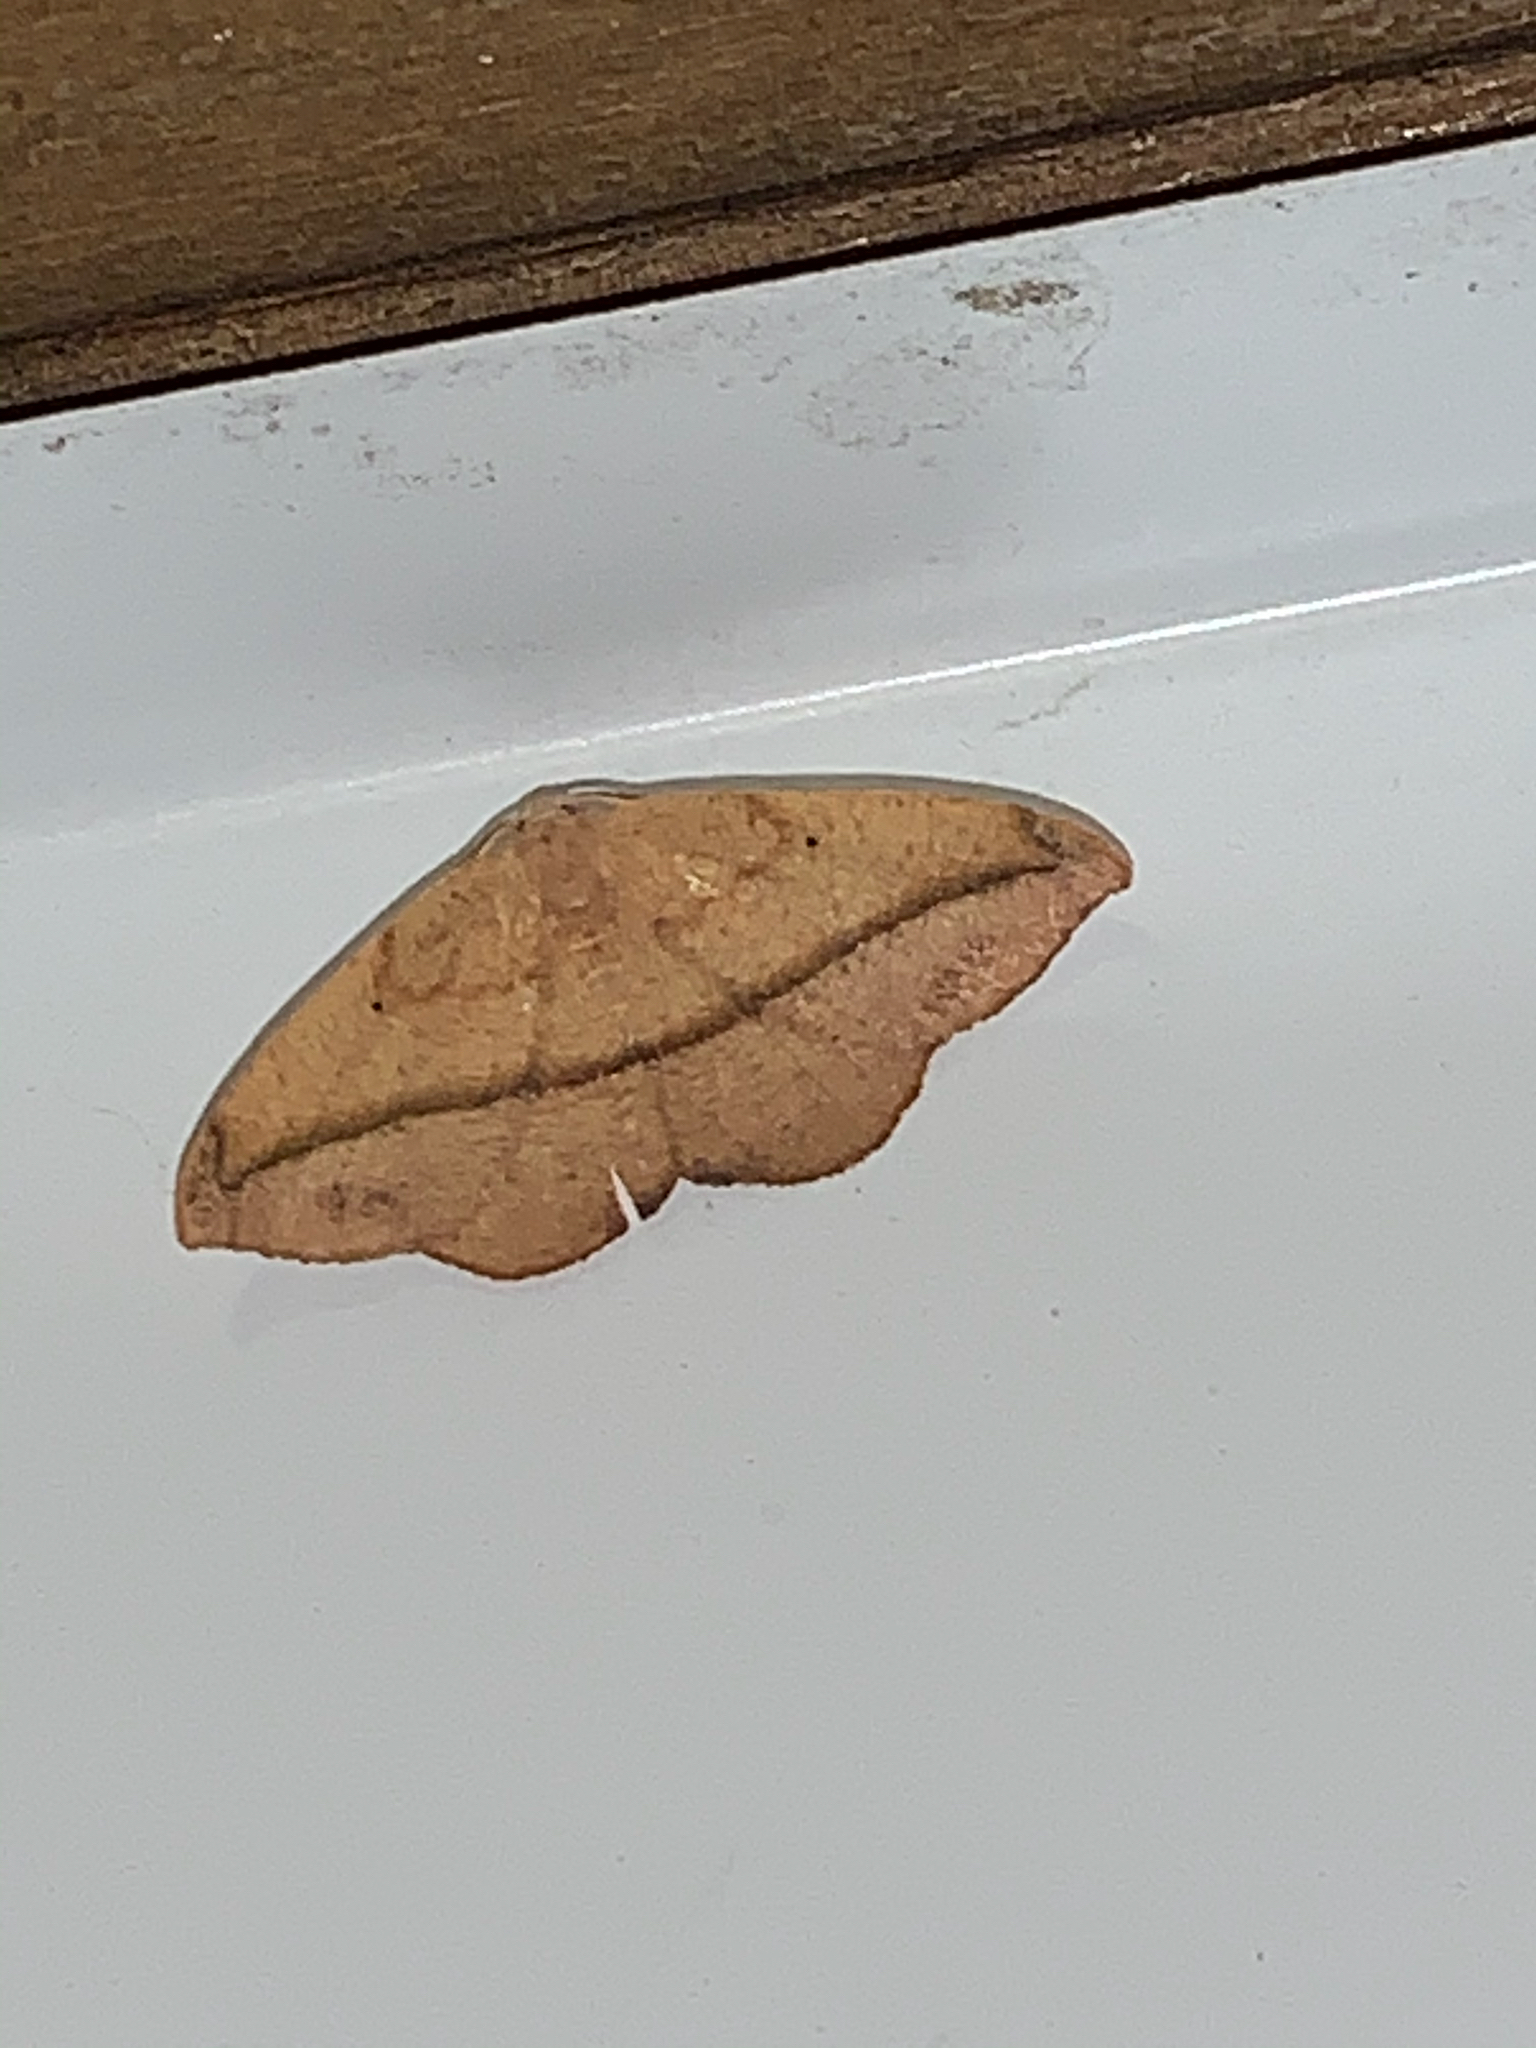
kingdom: Animalia
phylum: Arthropoda
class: Insecta
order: Lepidoptera
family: Geometridae
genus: Patalene
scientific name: Patalene olyzonaria
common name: Juniper geometer moth
